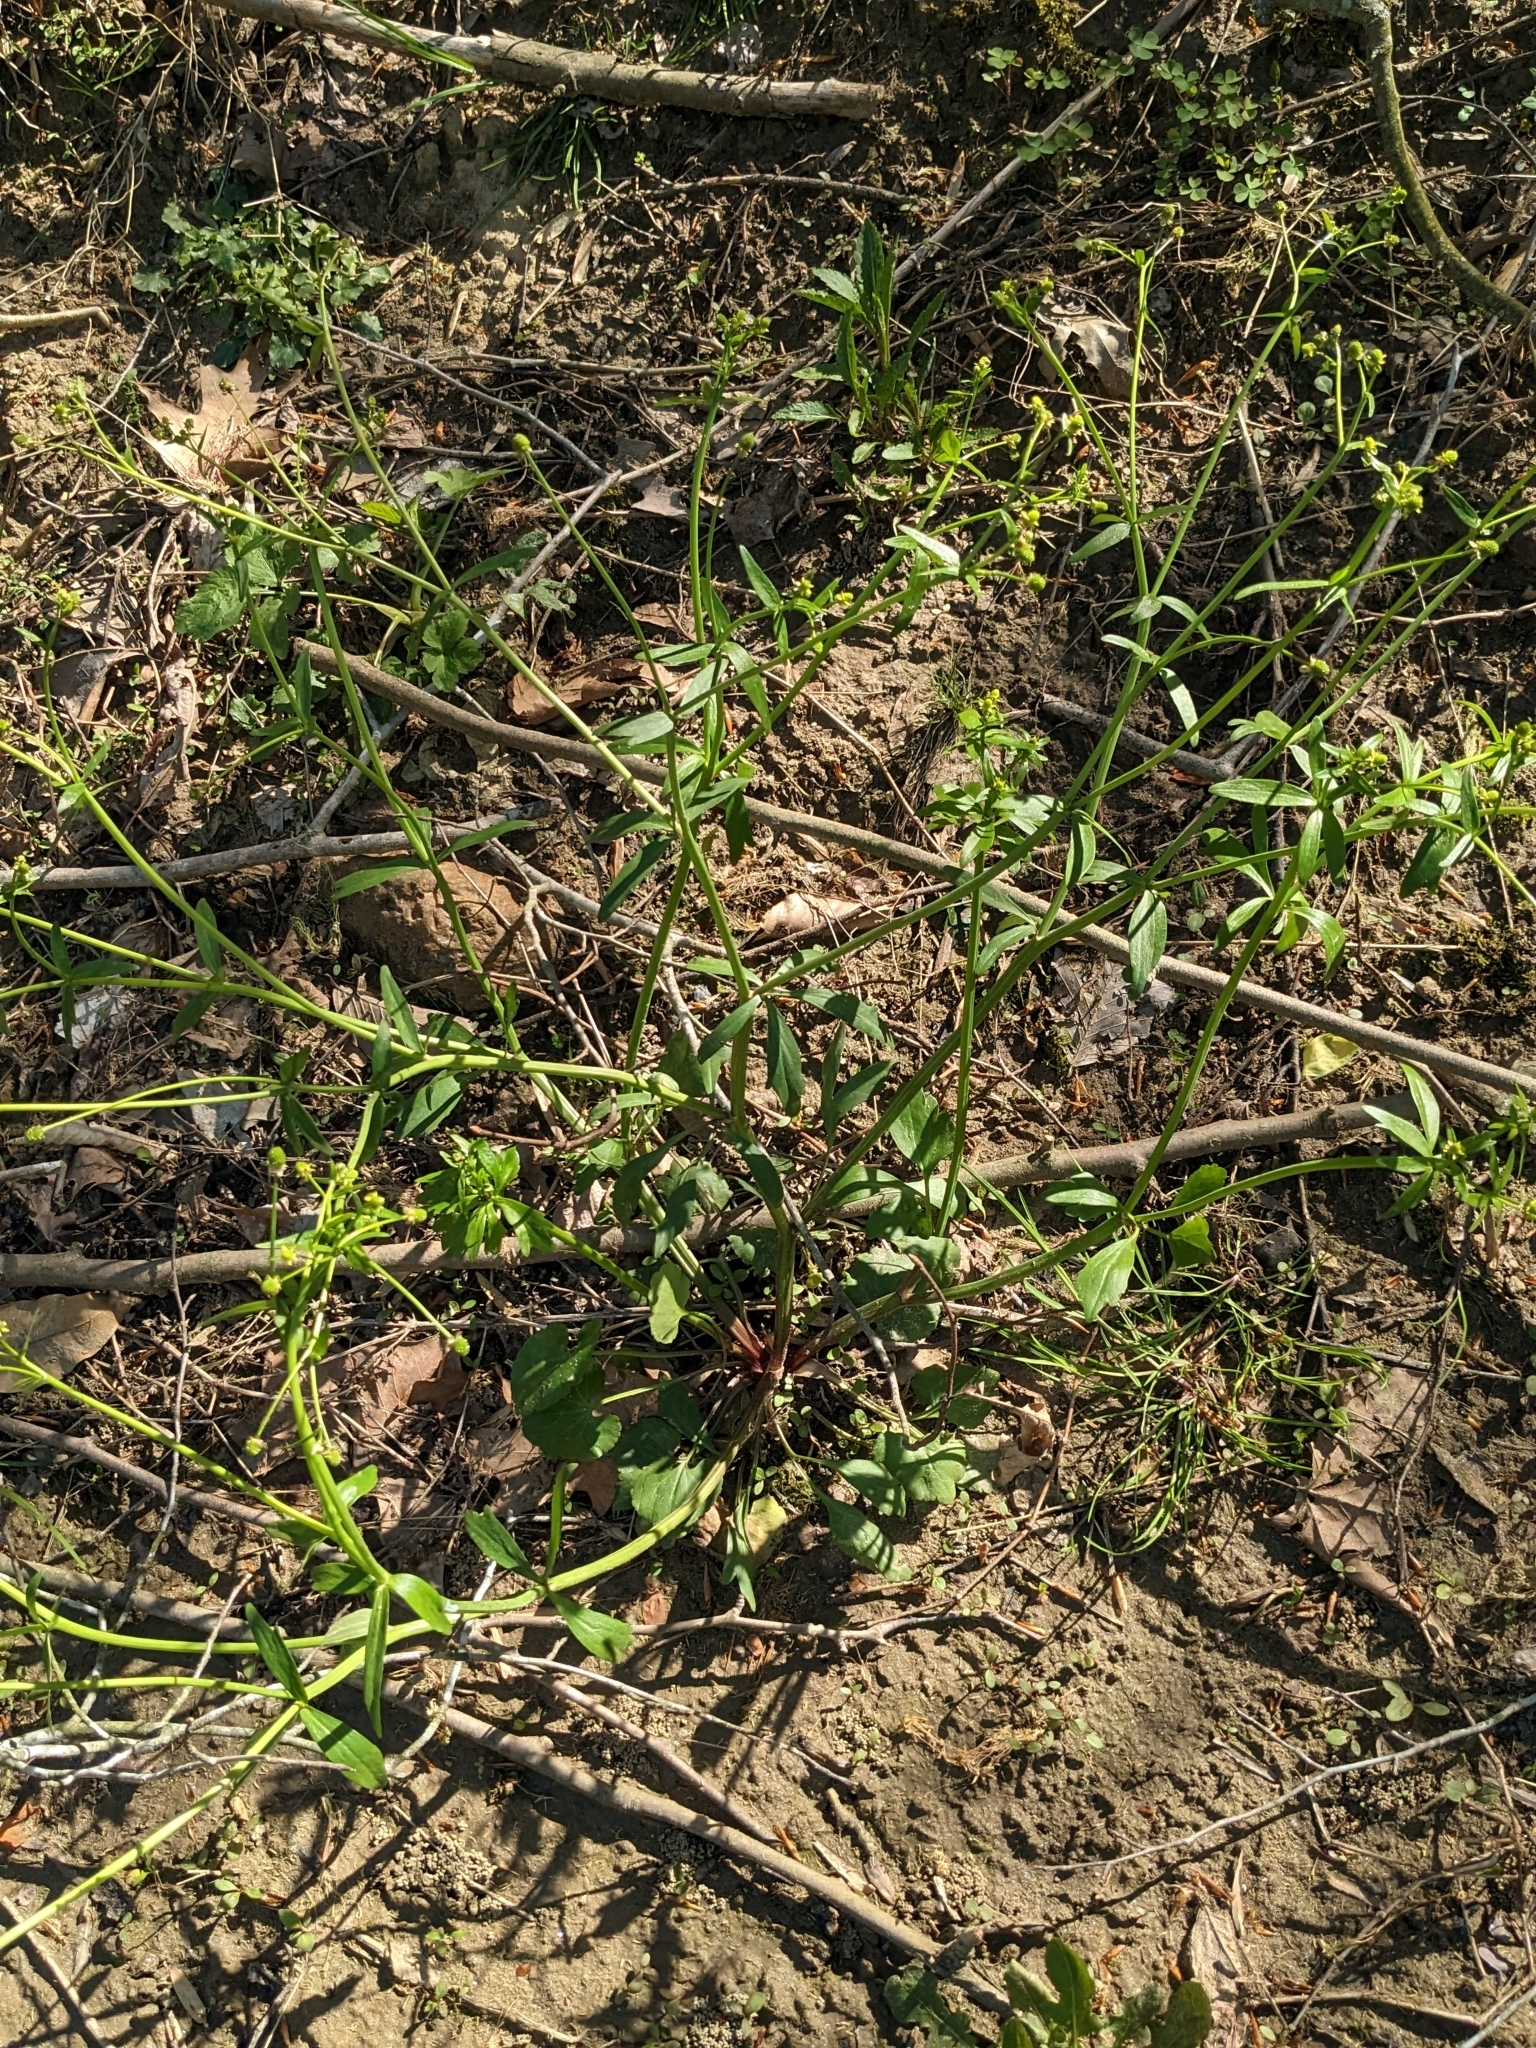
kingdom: Plantae
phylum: Tracheophyta
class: Magnoliopsida
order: Ranunculales
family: Ranunculaceae
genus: Ranunculus
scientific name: Ranunculus abortivus
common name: Early wood buttercup
